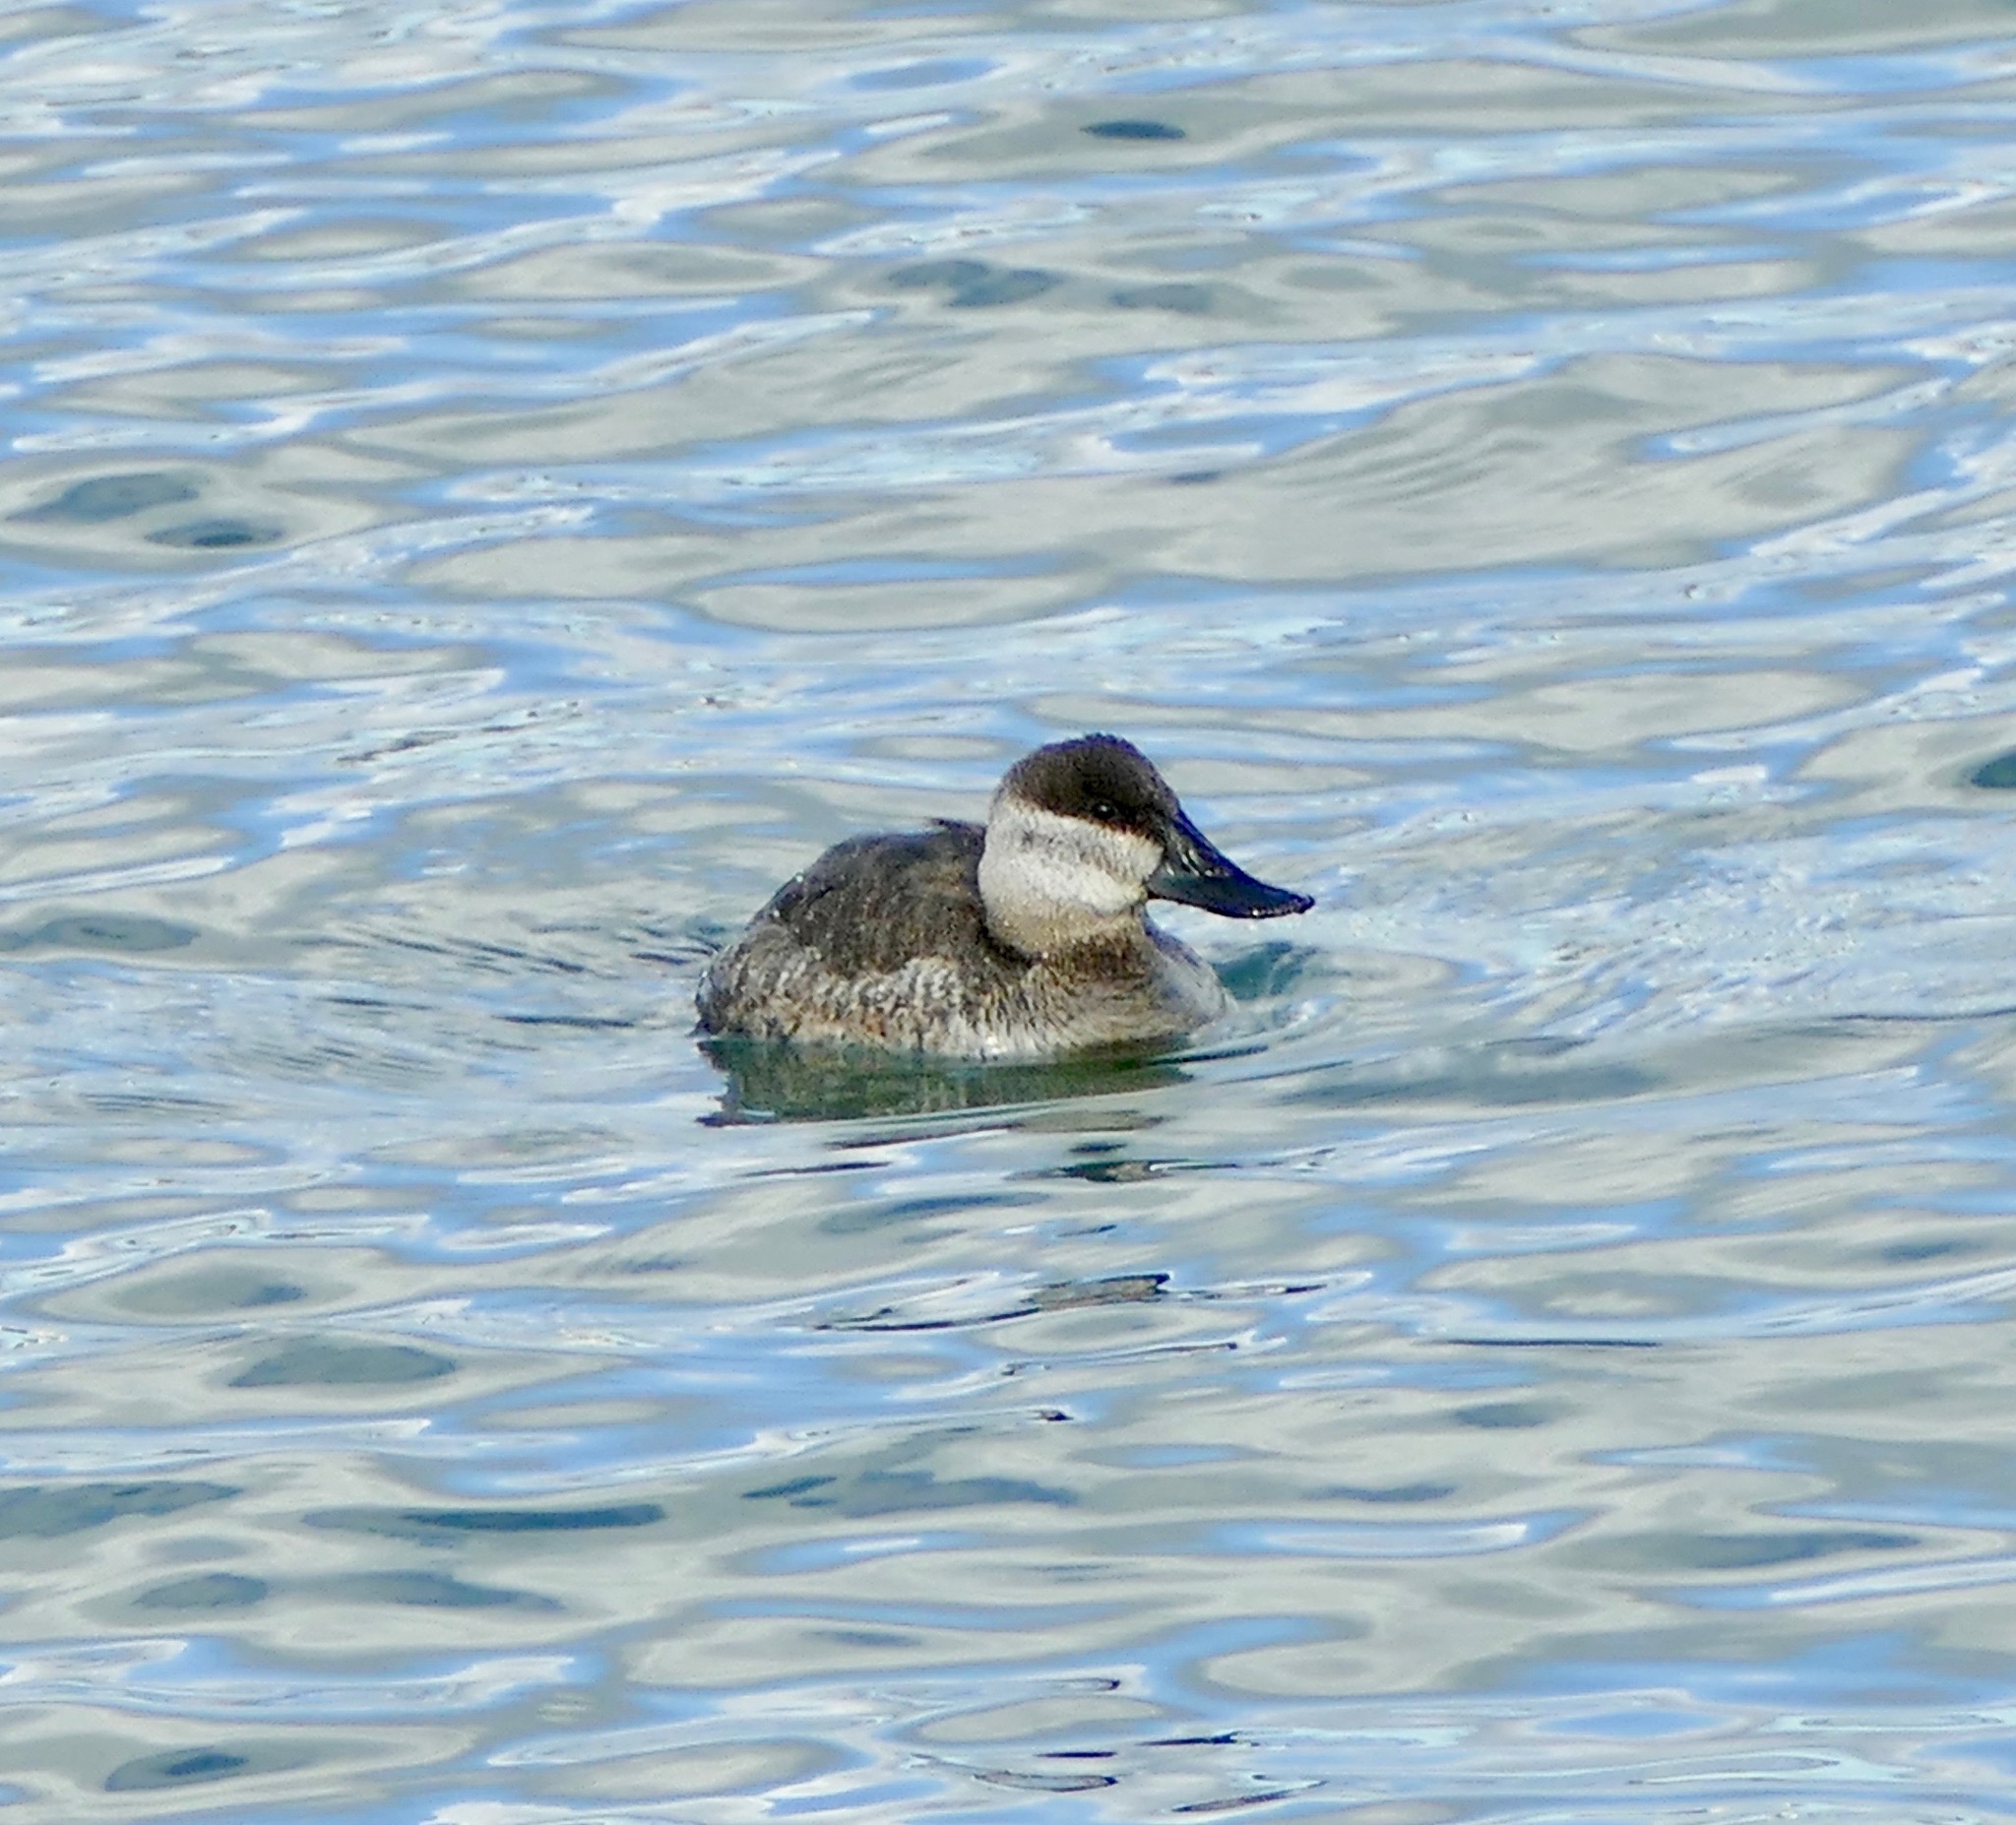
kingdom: Animalia
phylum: Chordata
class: Aves
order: Anseriformes
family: Anatidae
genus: Oxyura
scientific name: Oxyura jamaicensis
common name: Ruddy duck
